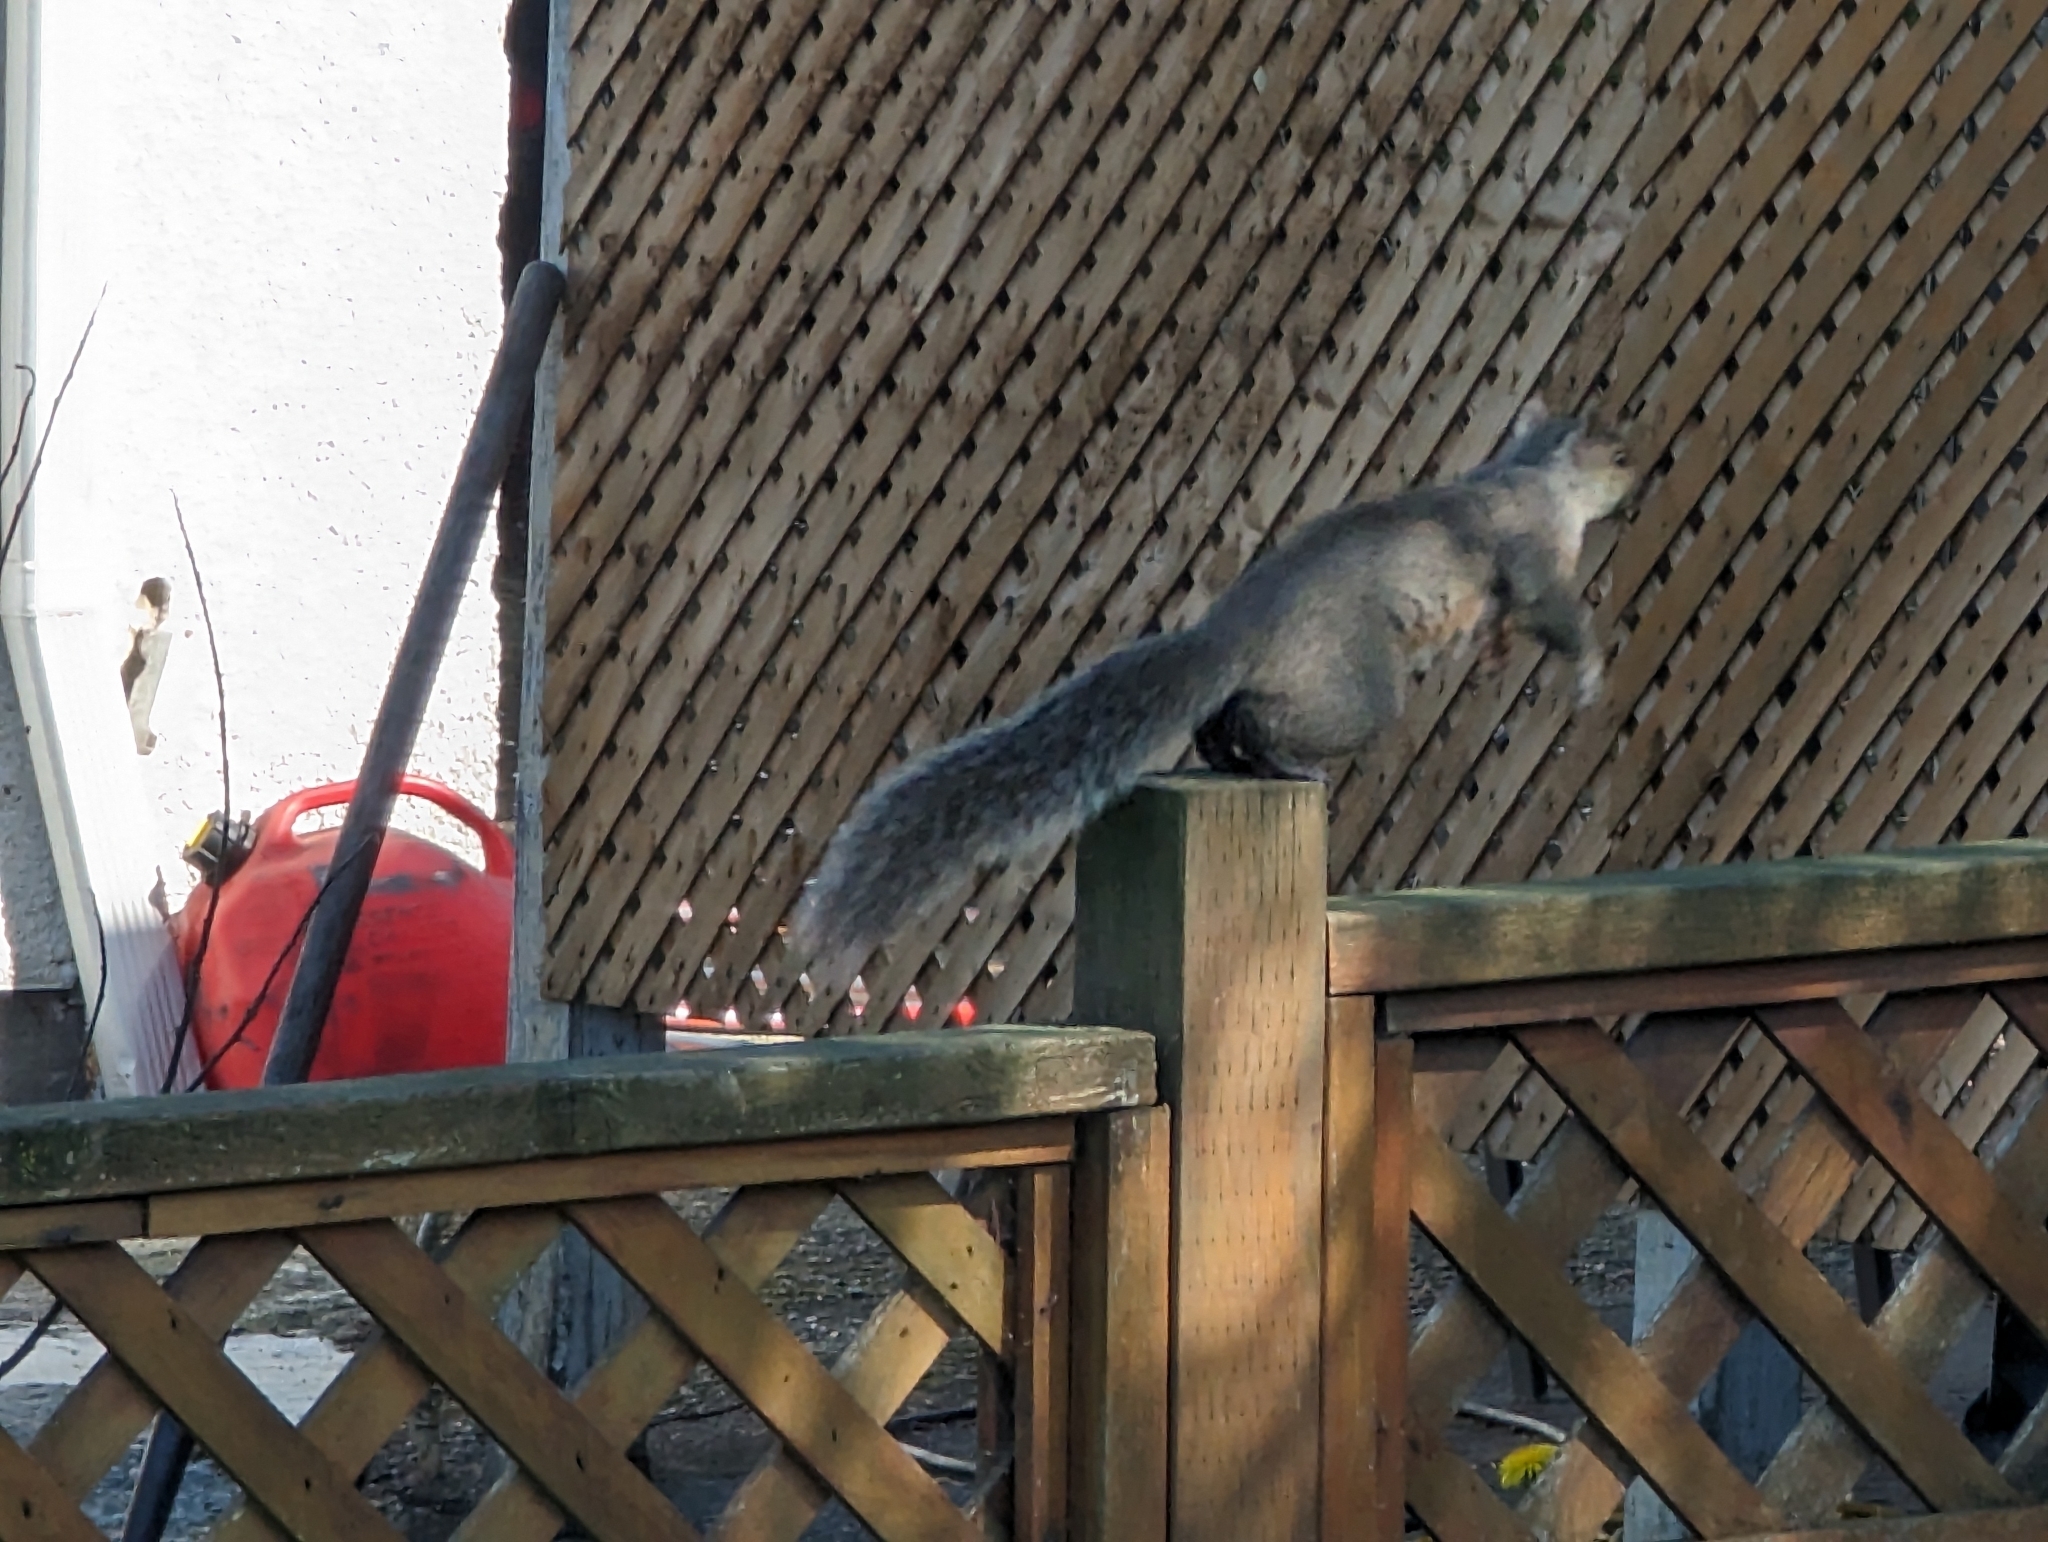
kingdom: Animalia
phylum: Chordata
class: Mammalia
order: Rodentia
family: Sciuridae
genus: Sciurus
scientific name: Sciurus carolinensis
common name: Eastern gray squirrel
